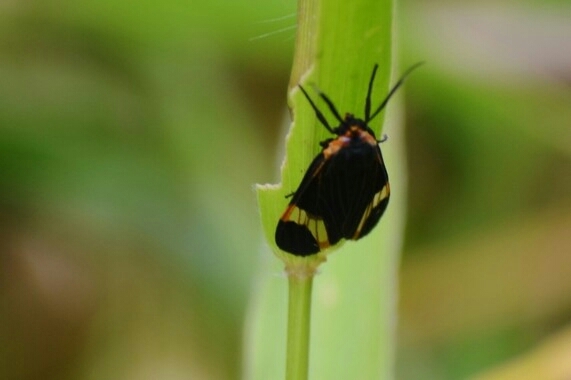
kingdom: Animalia
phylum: Arthropoda
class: Insecta
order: Lepidoptera
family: Erebidae
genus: Dycladia
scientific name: Dycladia lydia
